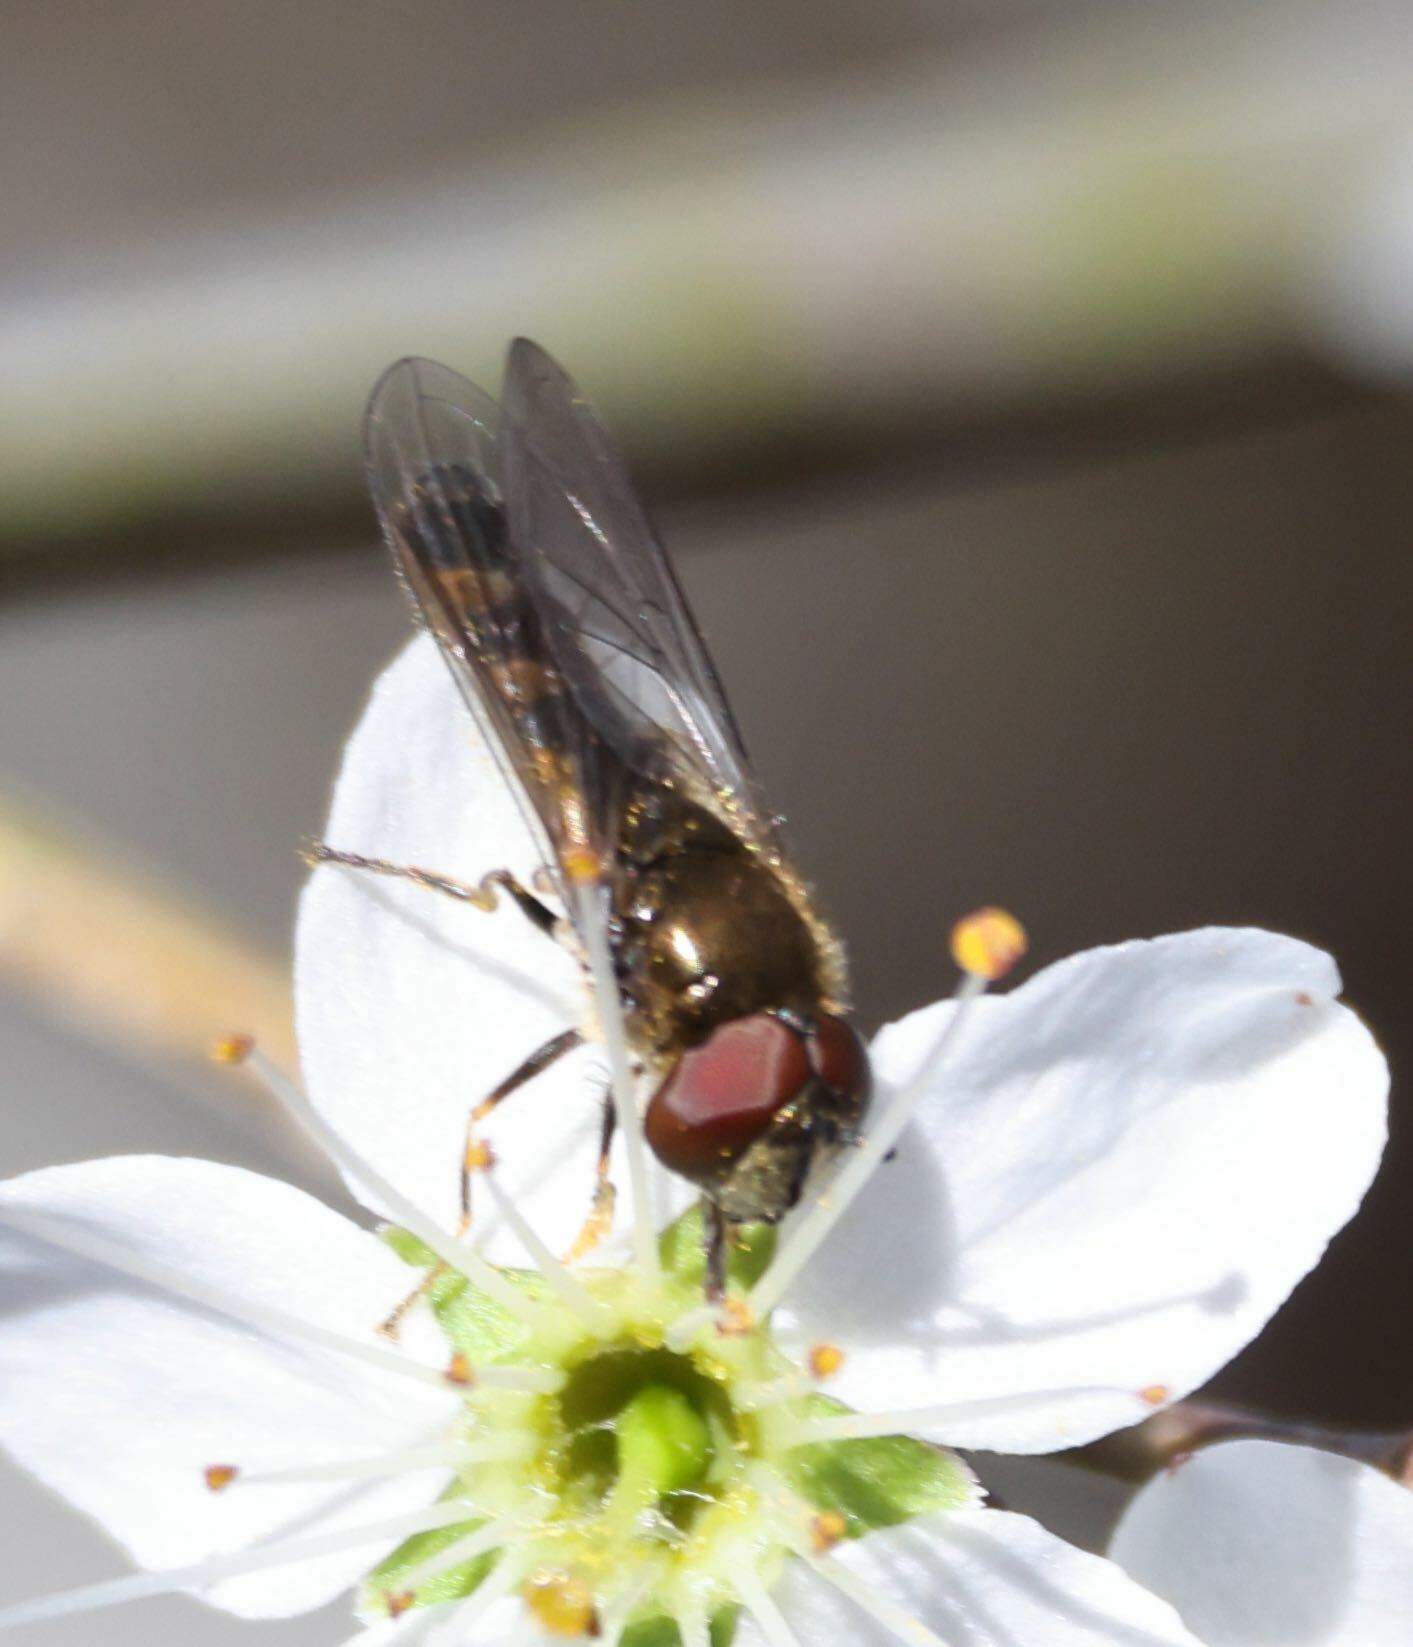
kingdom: Animalia
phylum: Arthropoda
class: Insecta
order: Diptera
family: Syrphidae
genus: Platycheirus
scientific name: Platycheirus albimanus
